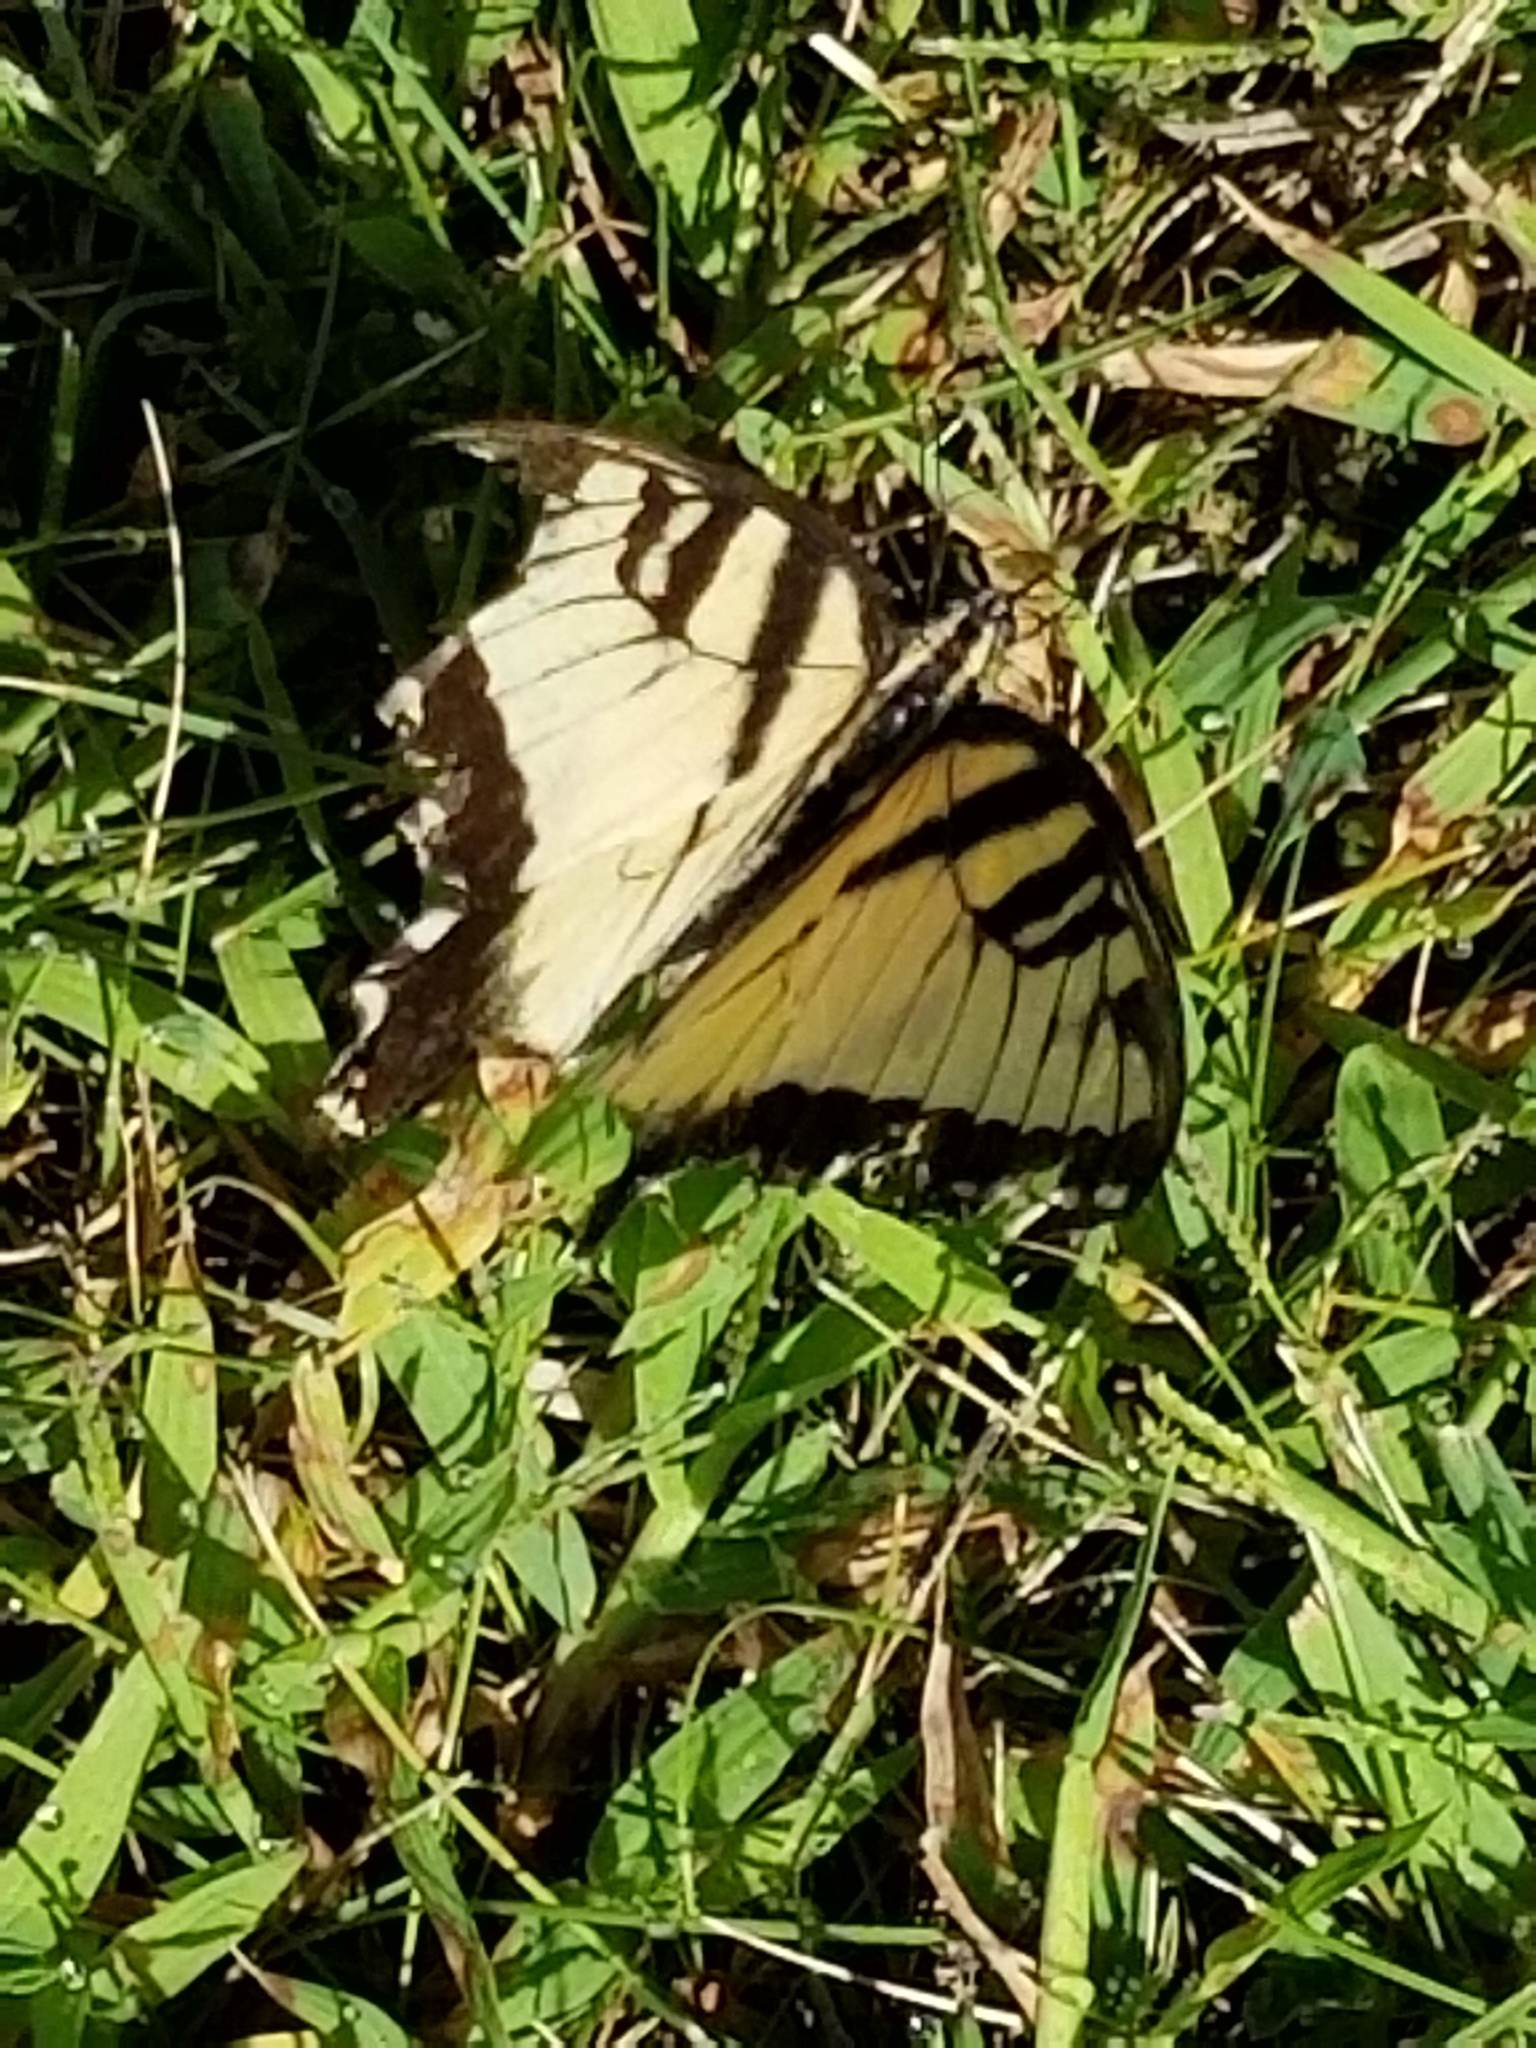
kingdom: Animalia
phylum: Arthropoda
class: Insecta
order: Lepidoptera
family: Papilionidae
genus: Papilio
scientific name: Papilio glaucus
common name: Tiger swallowtail
